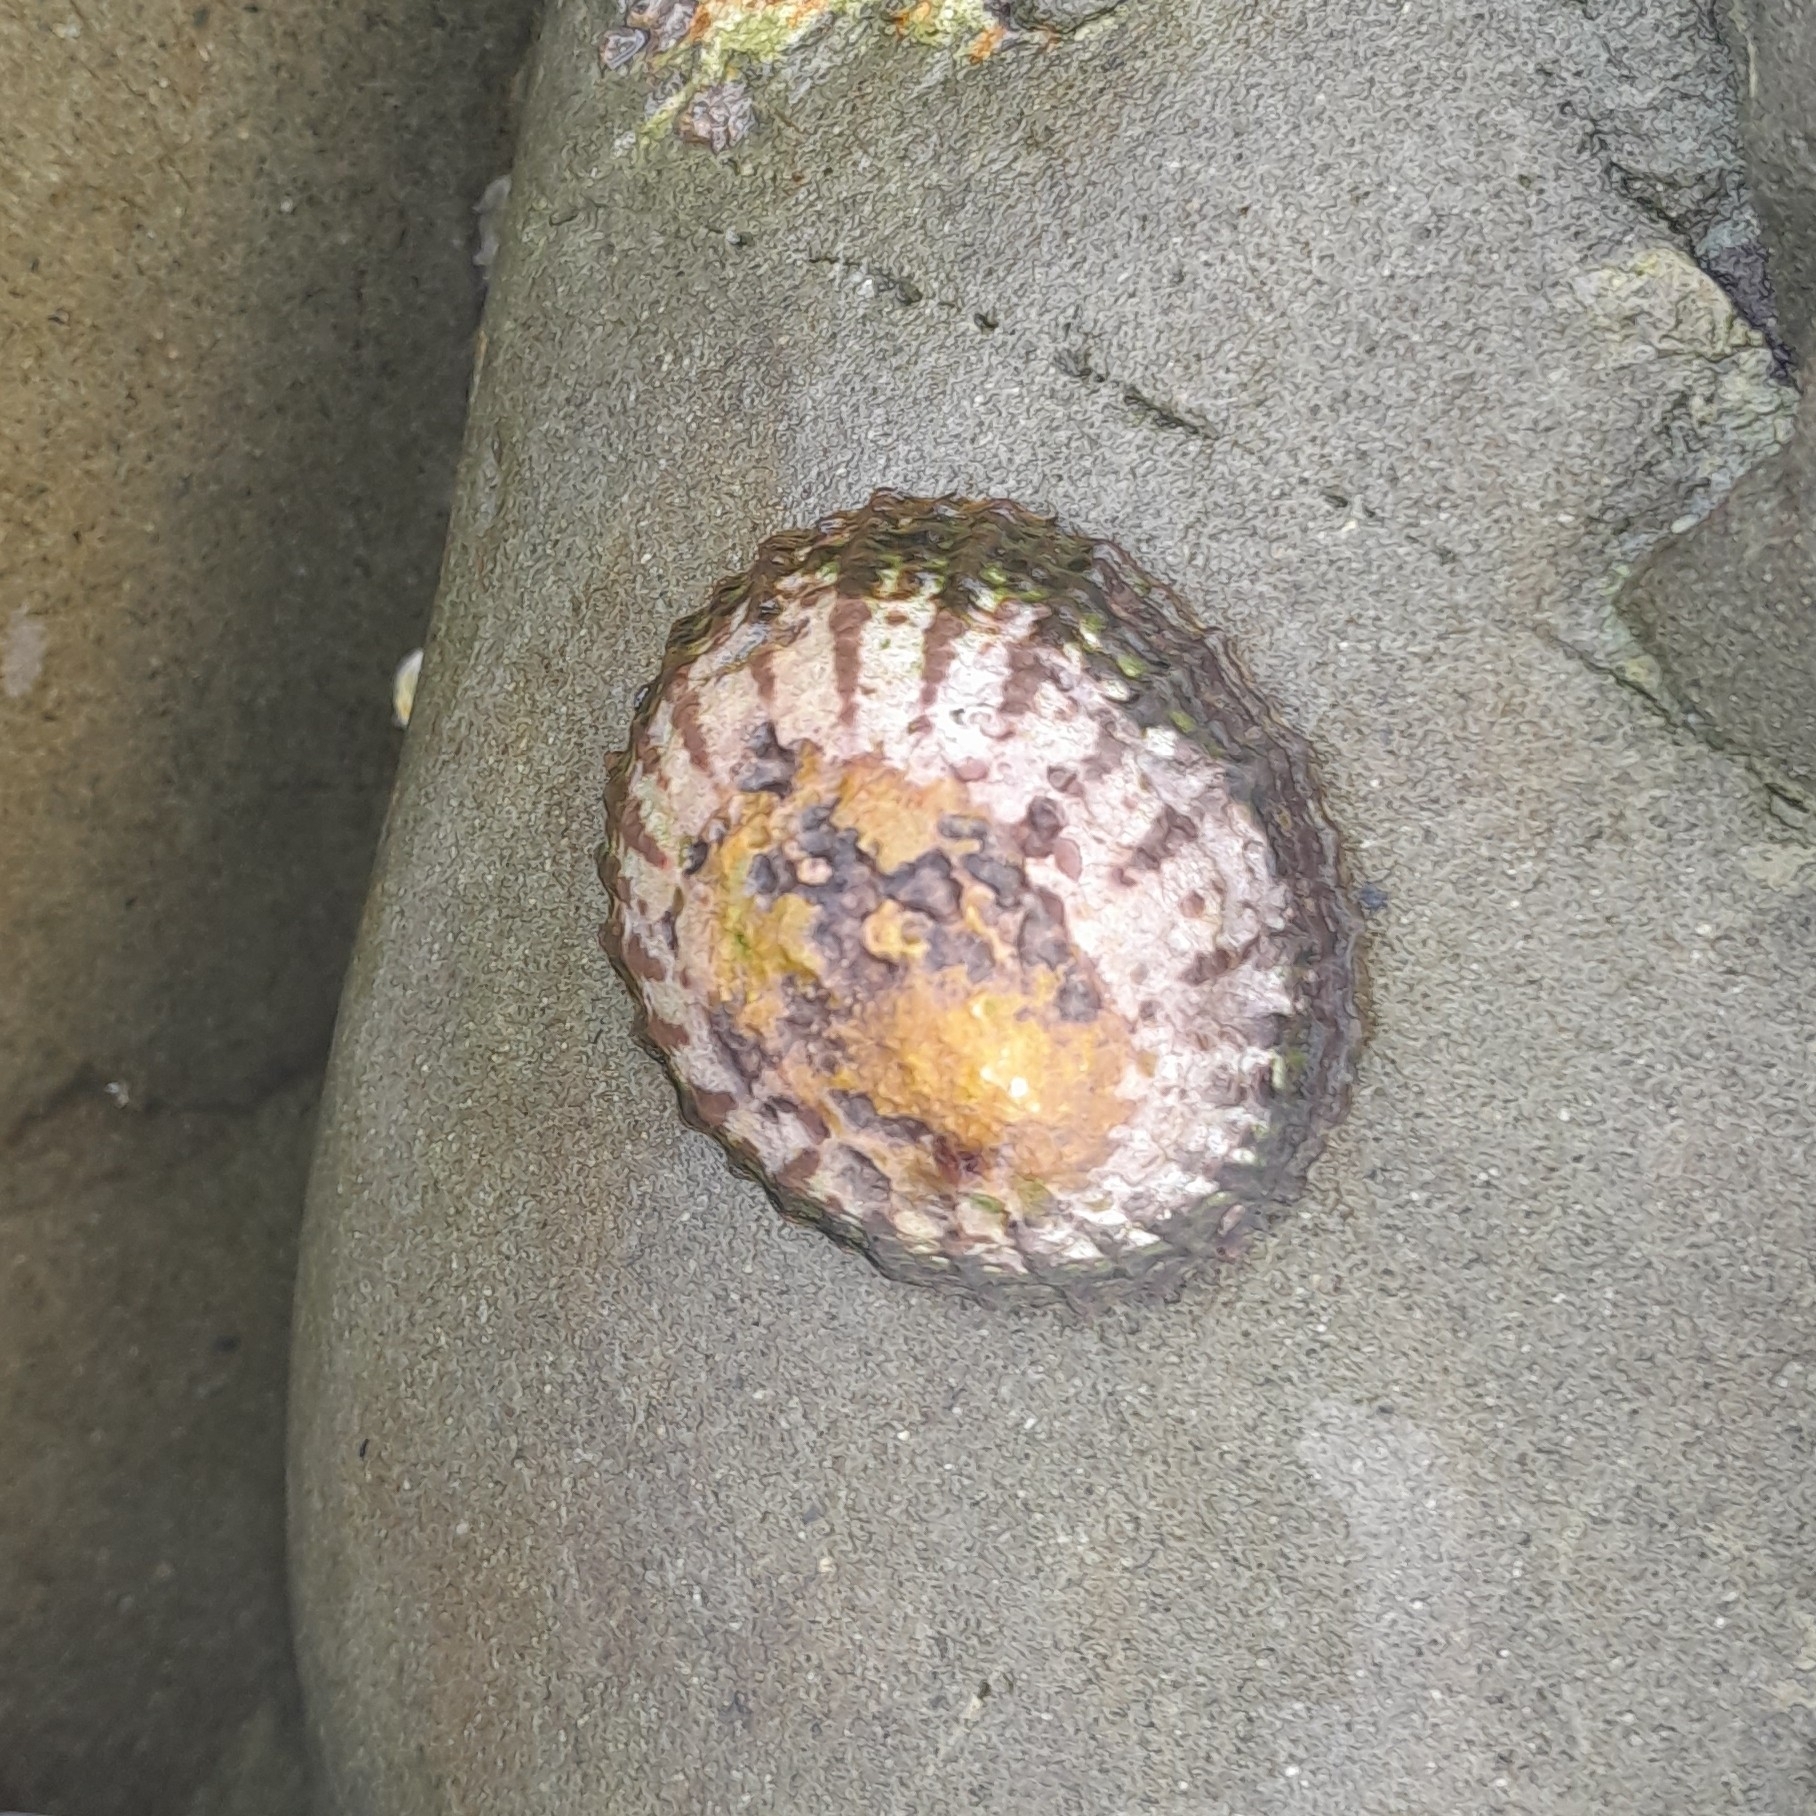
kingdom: Animalia
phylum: Mollusca
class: Gastropoda
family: Nacellidae
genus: Cellana
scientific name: Cellana denticulata
